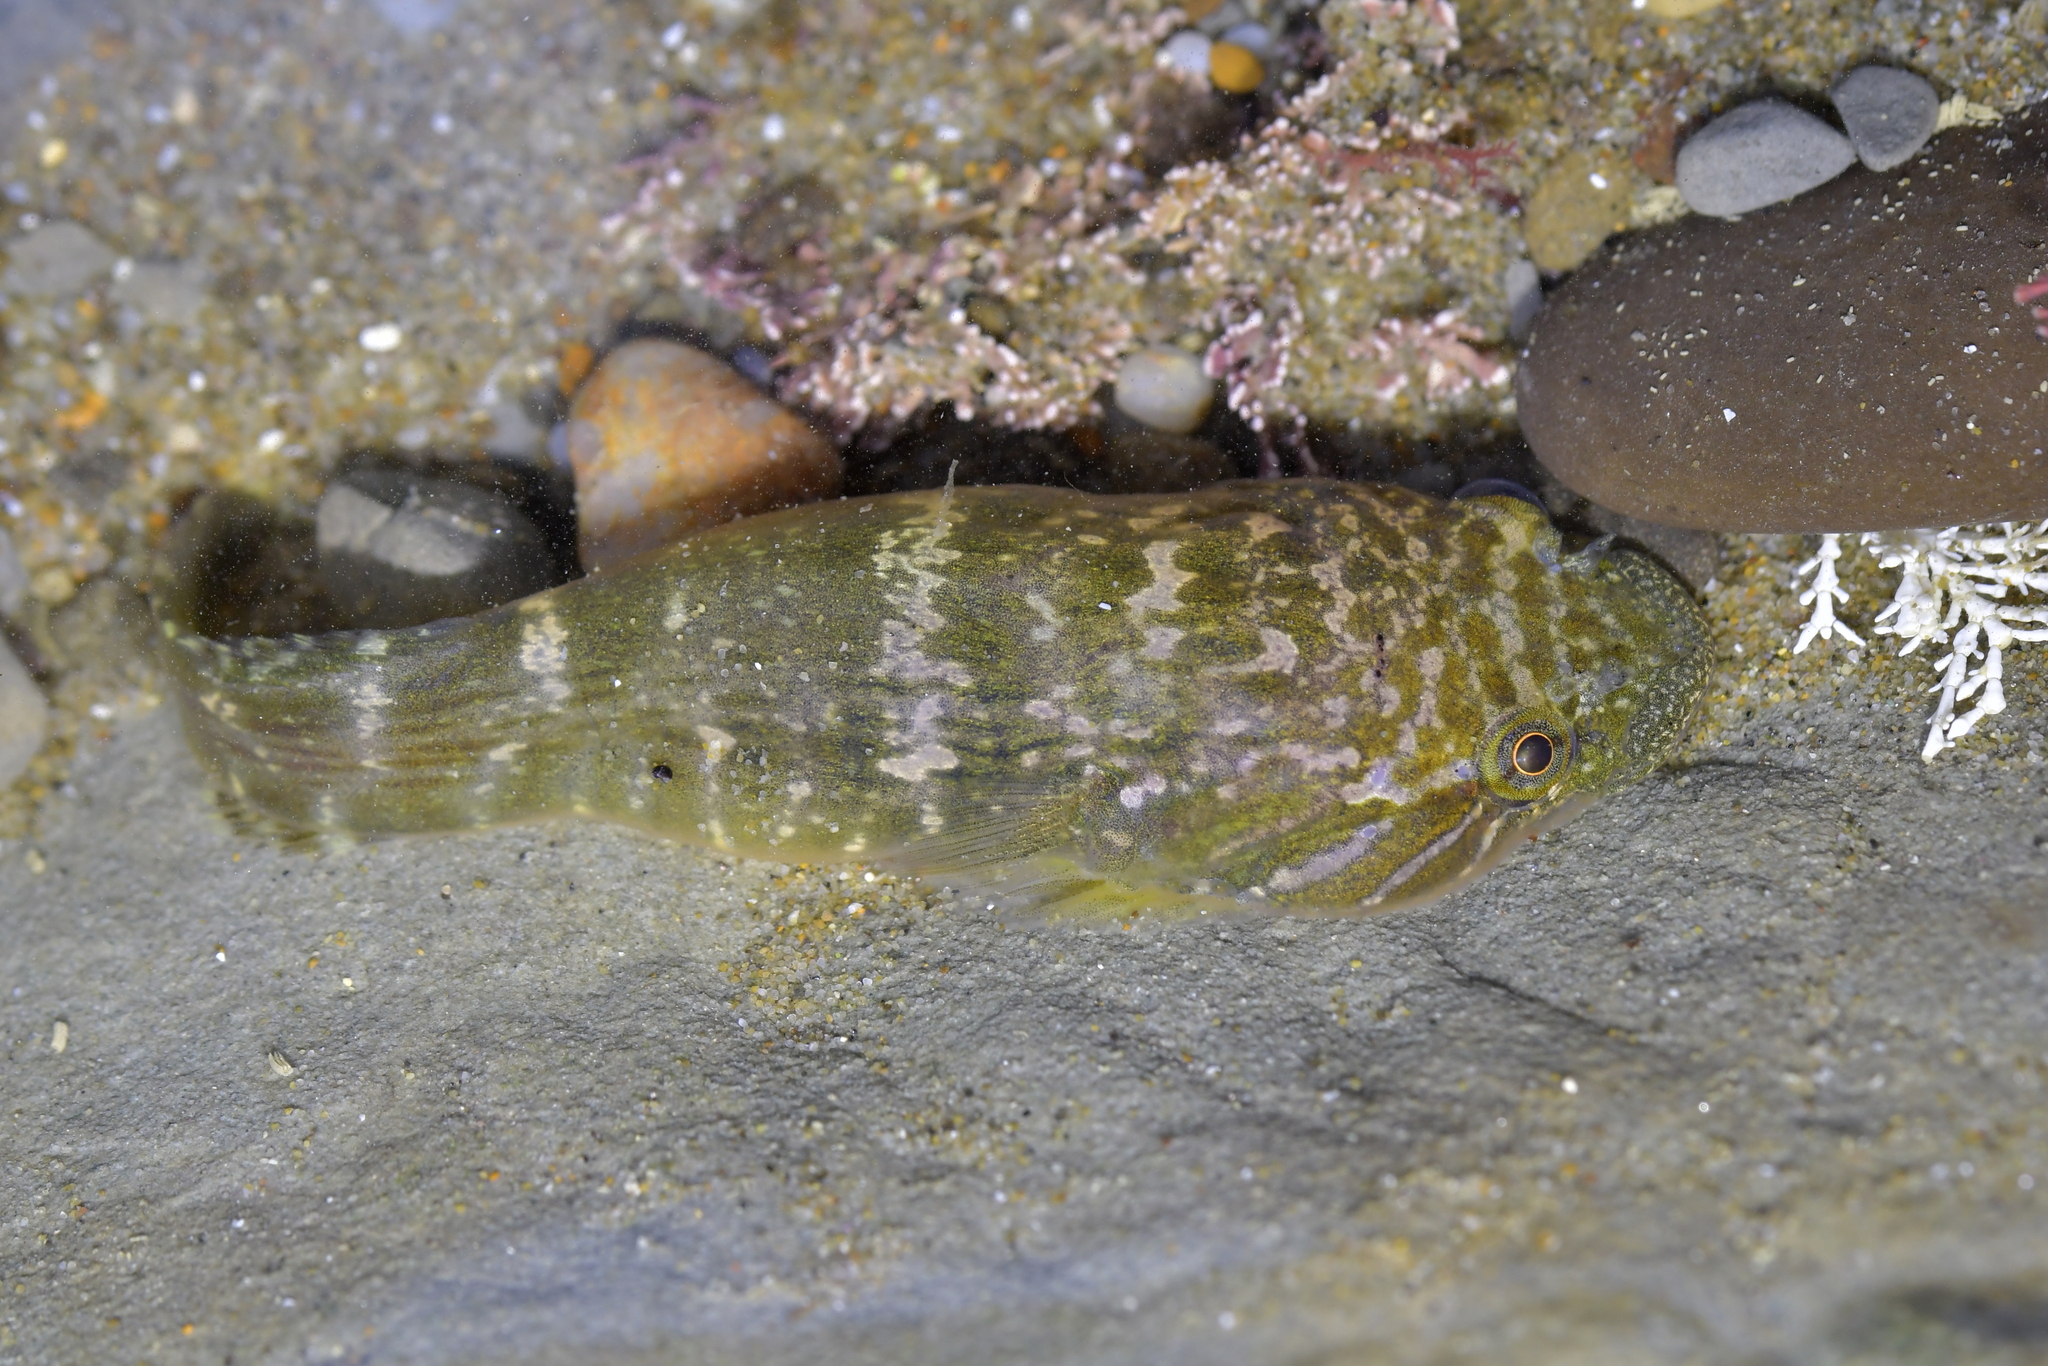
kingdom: Animalia
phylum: Chordata
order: Gobiesociformes
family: Gobiesocidae
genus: Trachelochismus
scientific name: Trachelochismus pinnulatus
